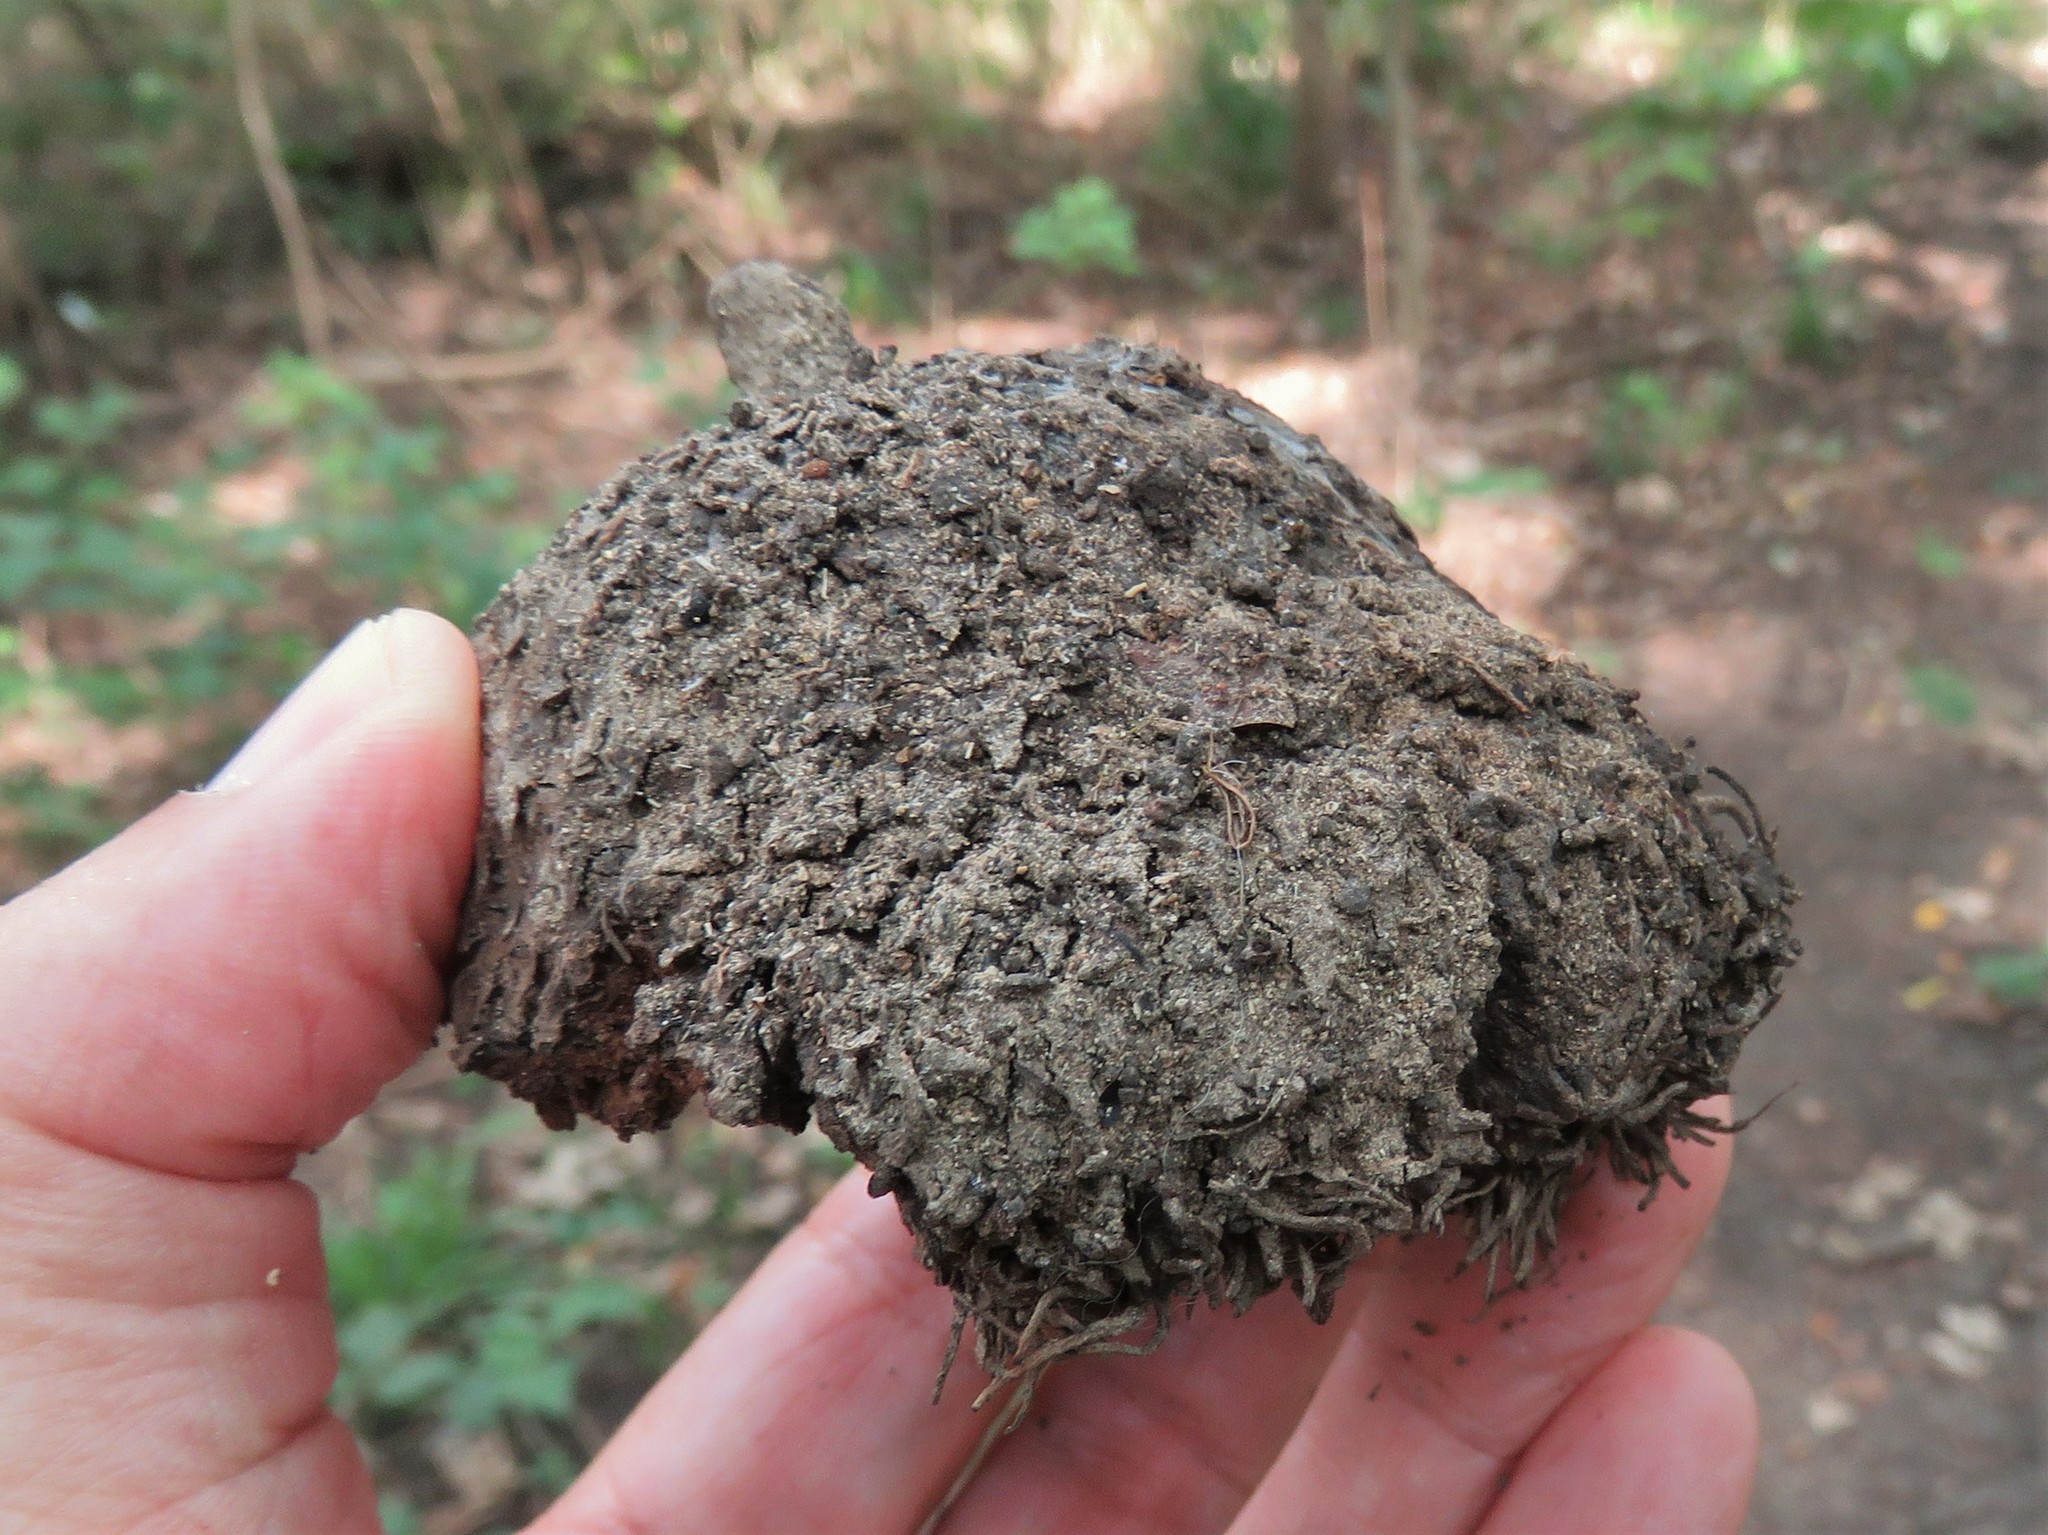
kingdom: Plantae
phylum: Tracheophyta
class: Magnoliopsida
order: Fagales
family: Fagaceae
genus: Quercus
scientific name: Quercus macrocarpa
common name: Bur oak
